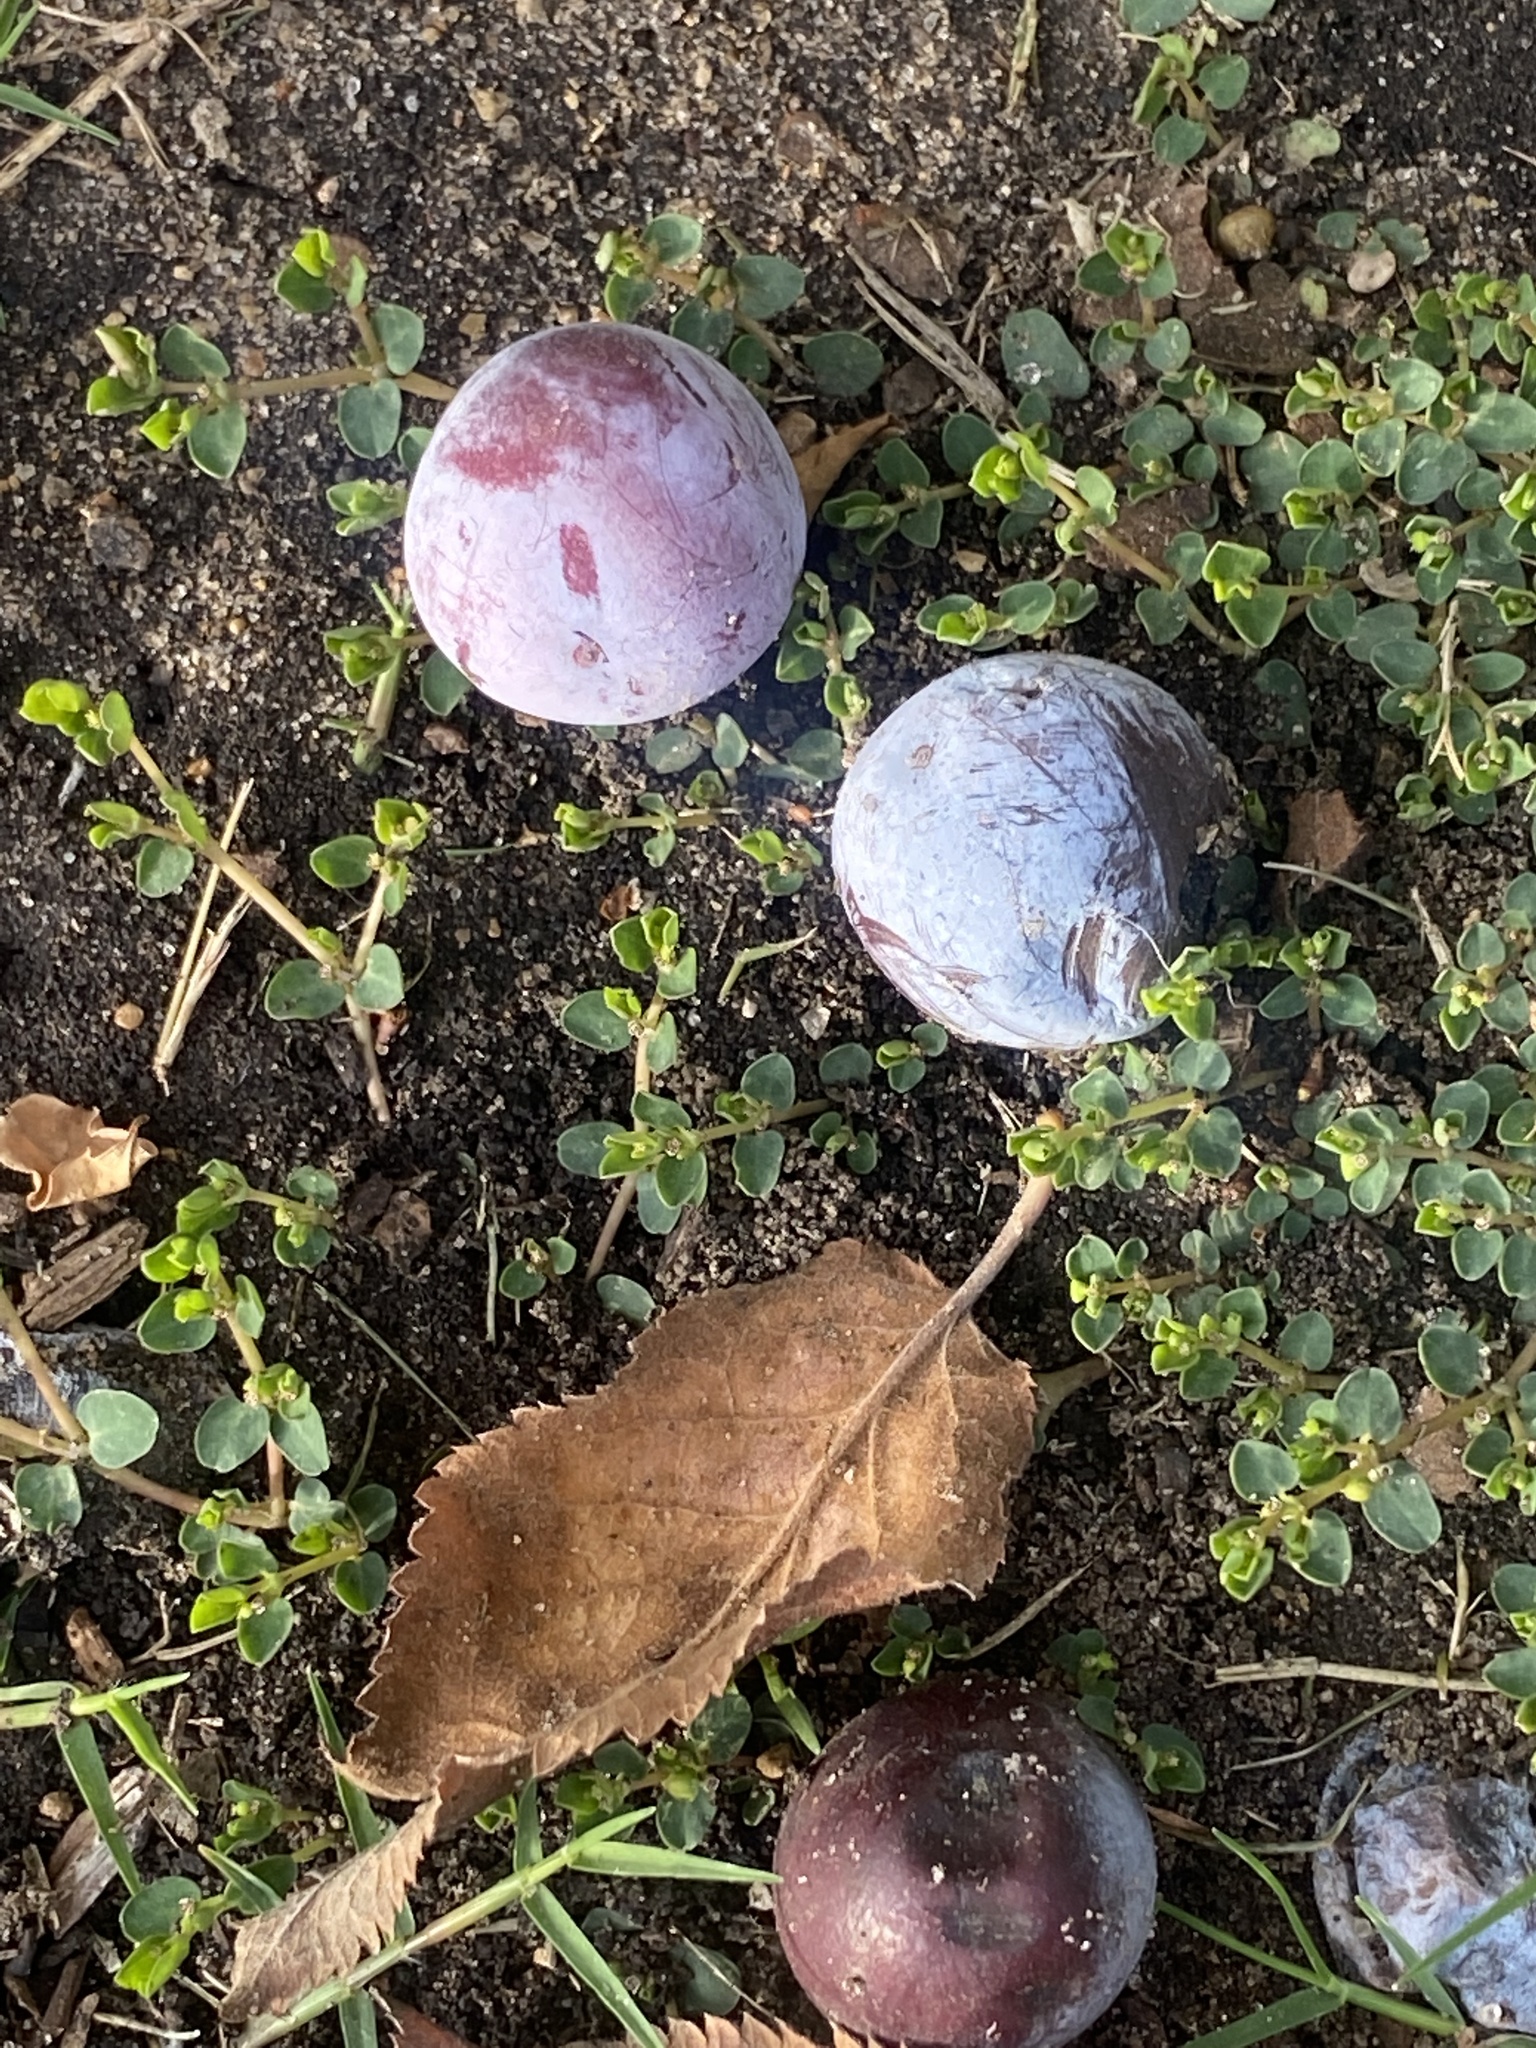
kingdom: Plantae
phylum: Tracheophyta
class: Magnoliopsida
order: Rosales
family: Rosaceae
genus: Prunus
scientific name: Prunus mexicana
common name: Mexican plum
